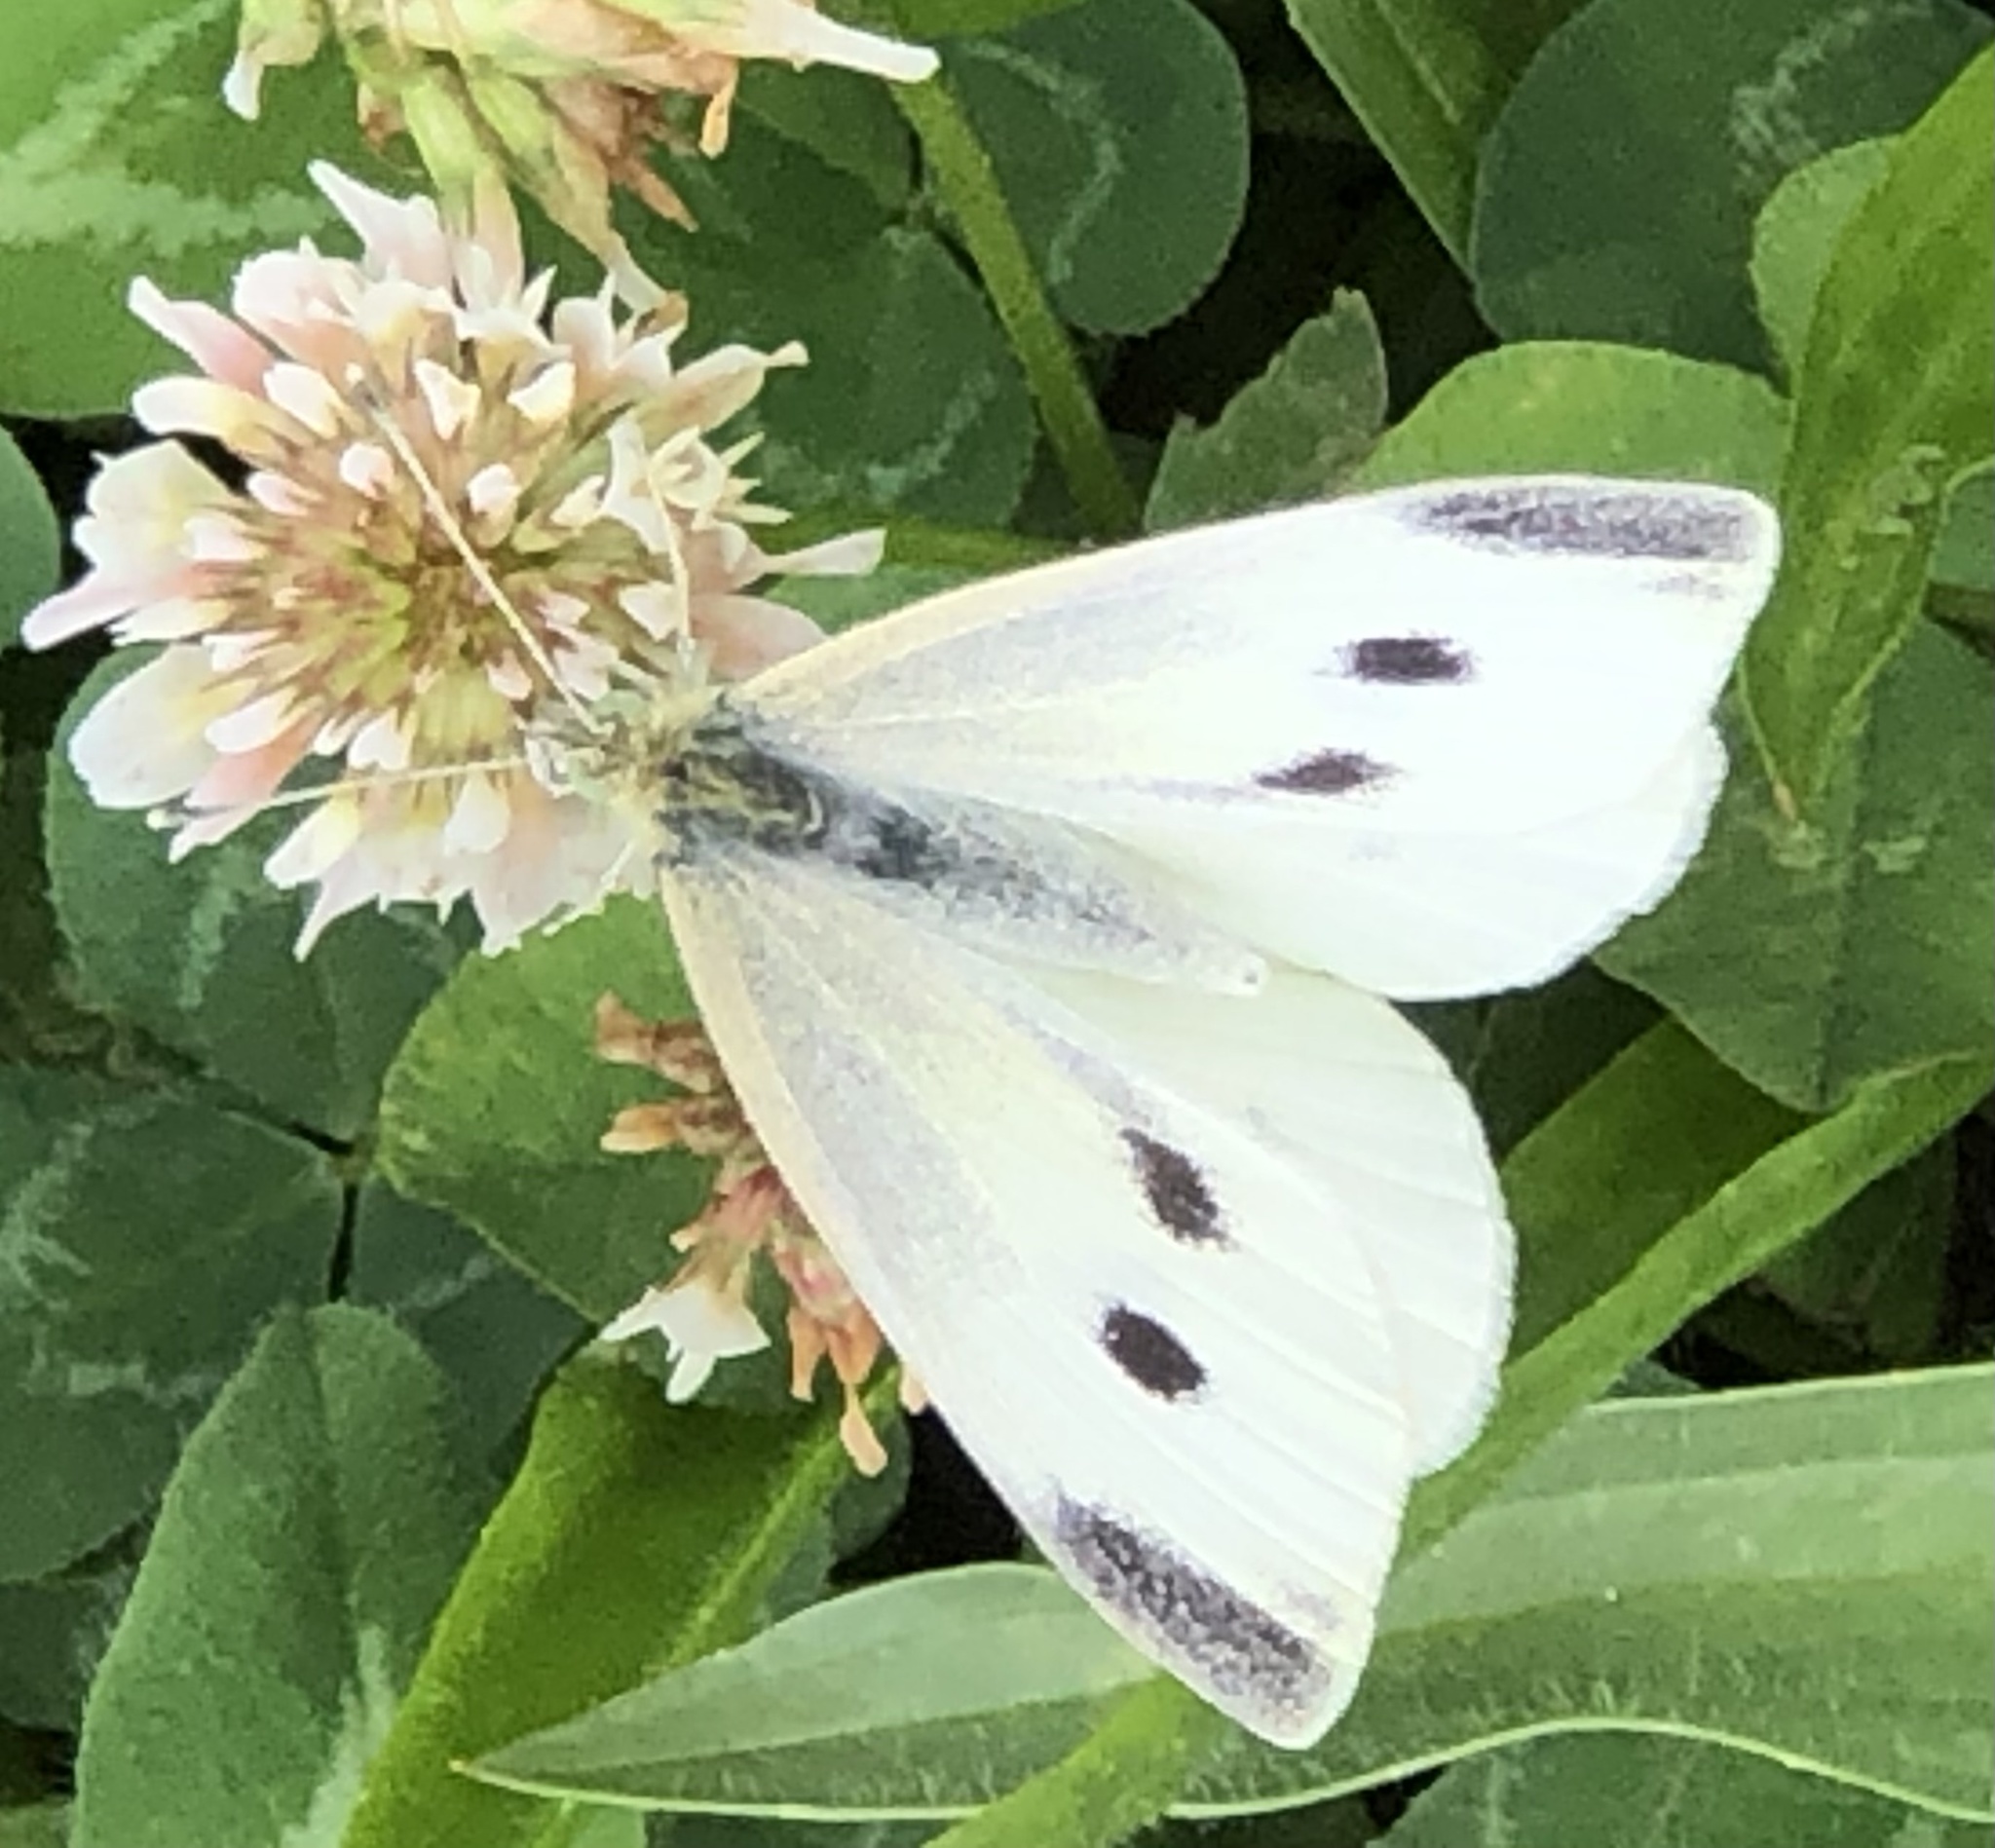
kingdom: Animalia
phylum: Arthropoda
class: Insecta
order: Lepidoptera
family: Pieridae
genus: Pieris
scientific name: Pieris rapae
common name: Small white
